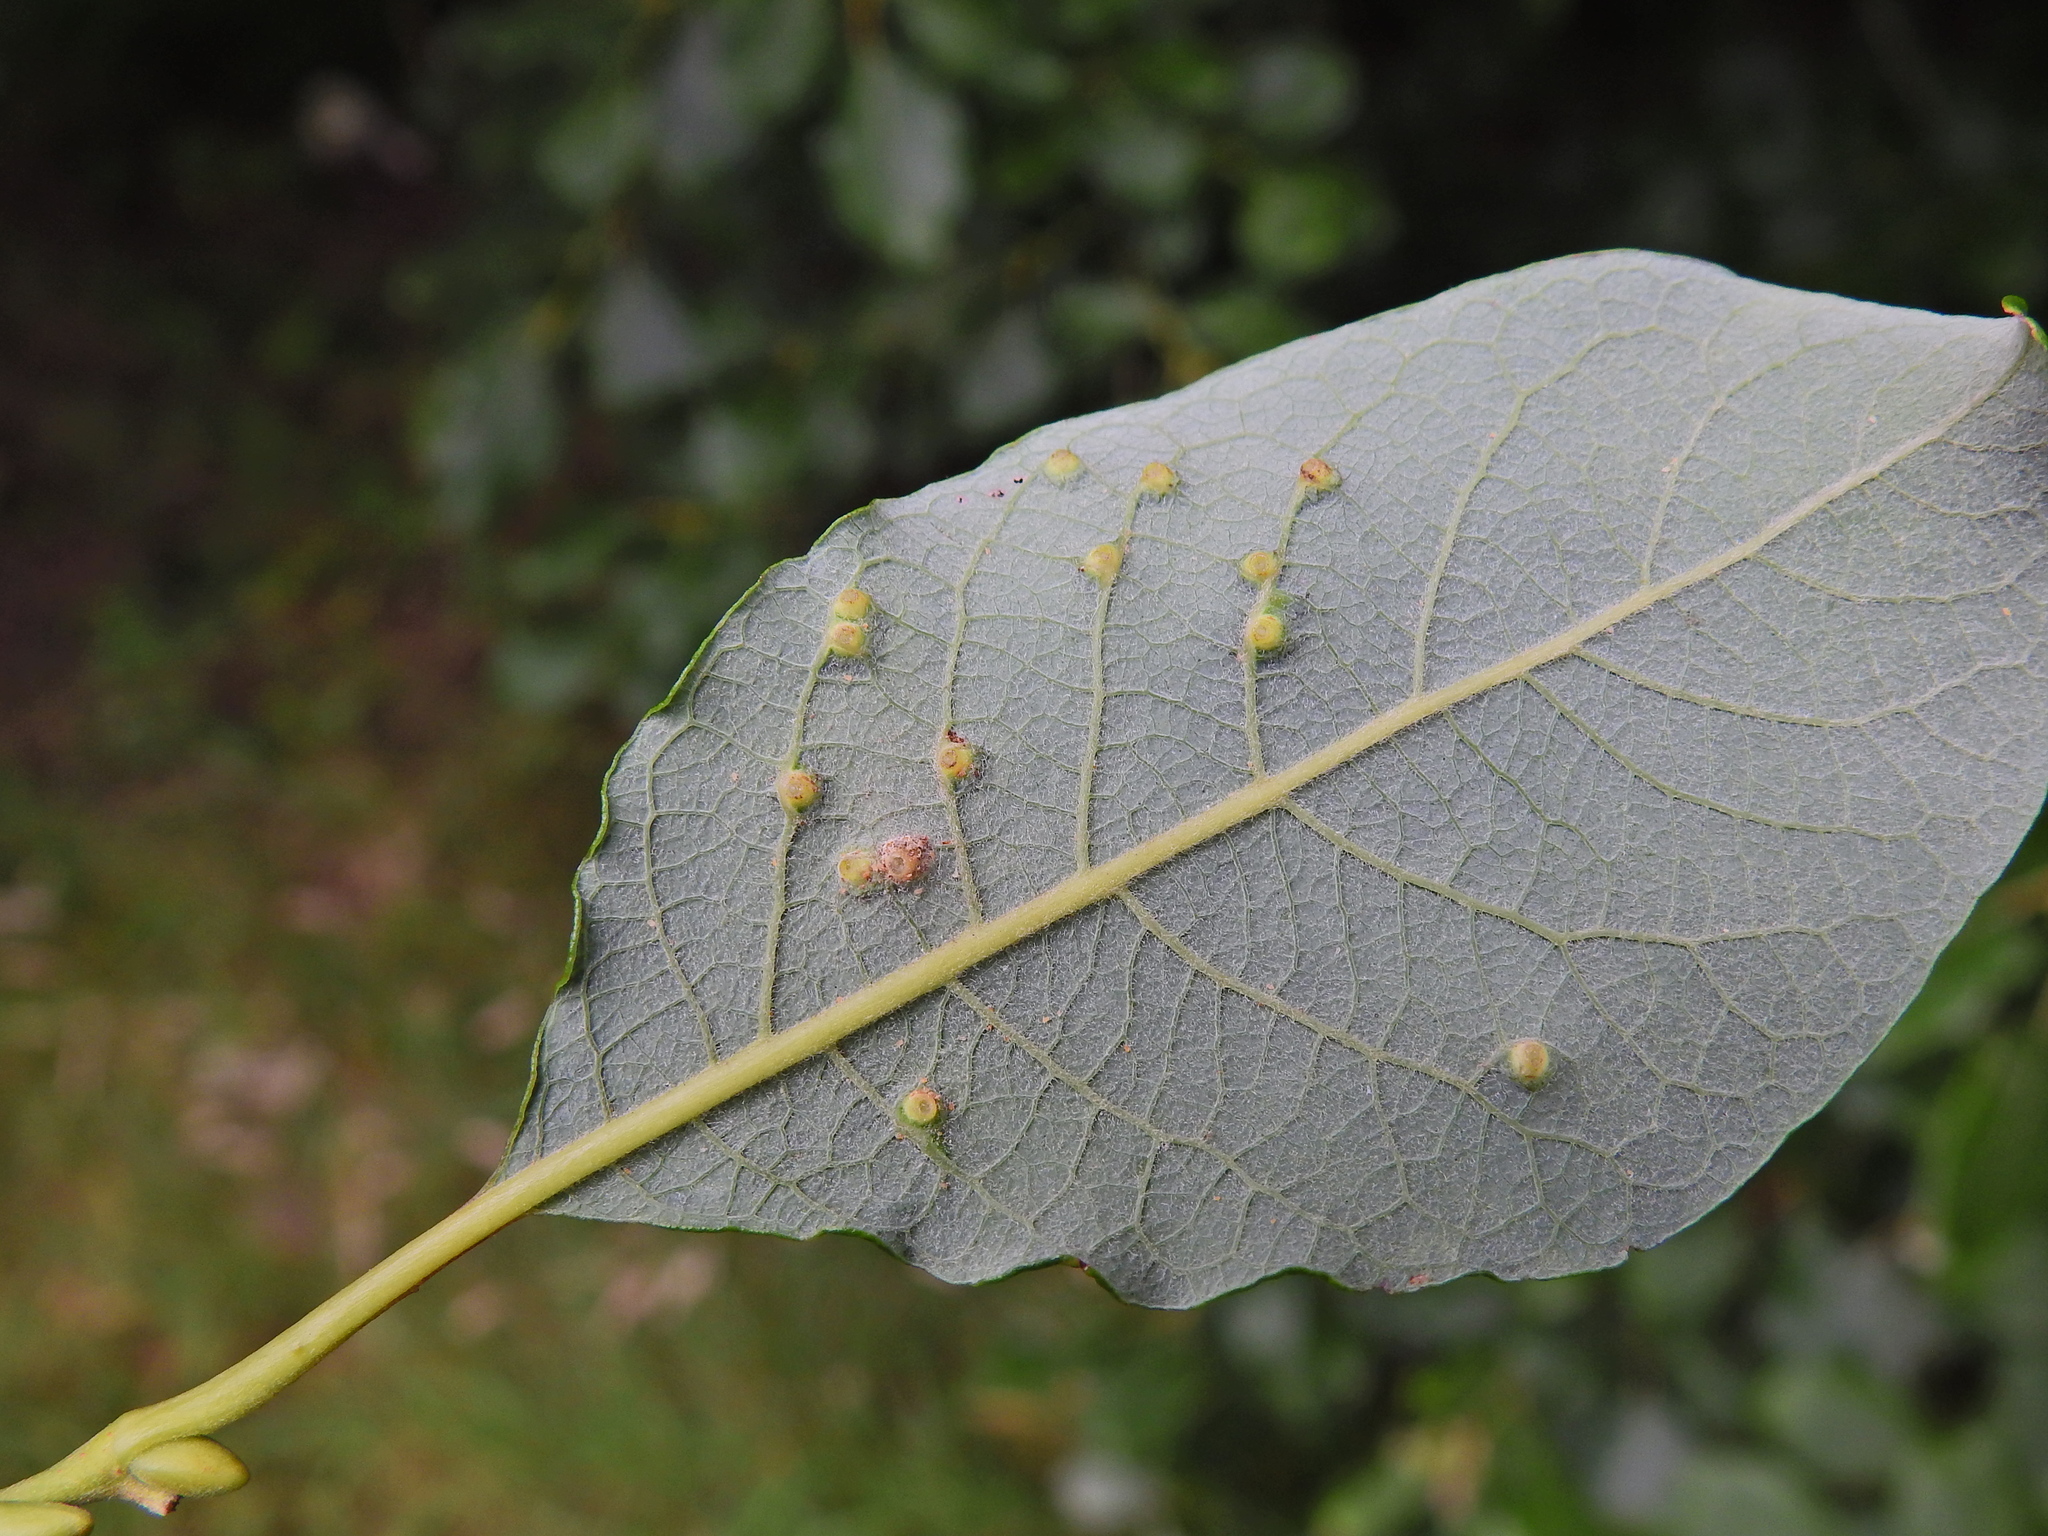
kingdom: Animalia
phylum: Arthropoda
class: Insecta
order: Diptera
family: Cecidomyiidae
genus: Iteomyia
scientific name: Iteomyia capreae
